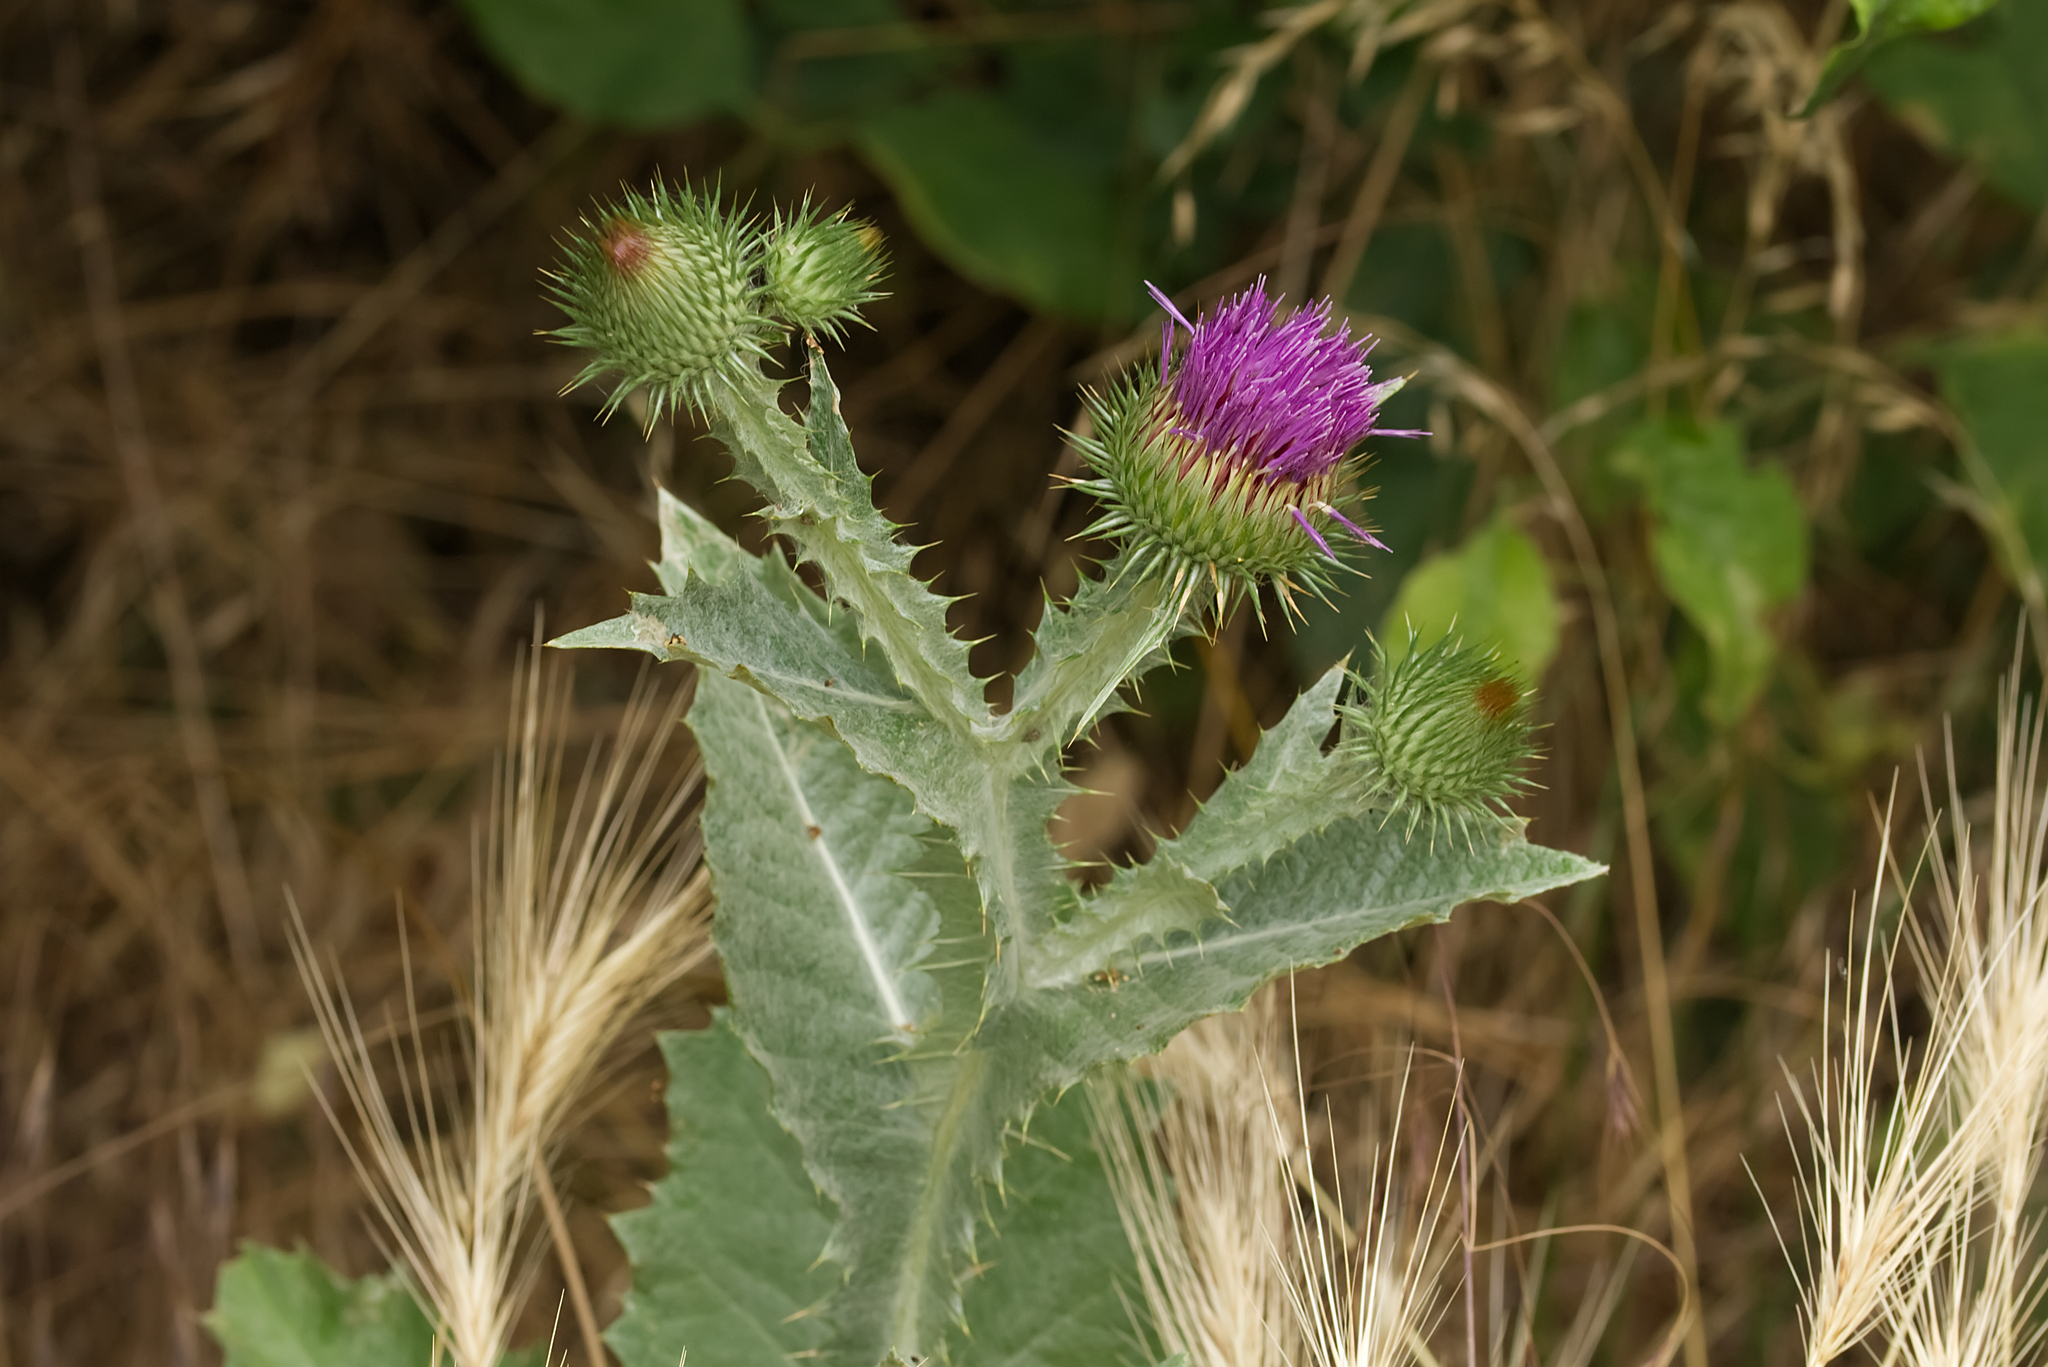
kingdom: Plantae
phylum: Tracheophyta
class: Magnoliopsida
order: Asterales
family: Asteraceae
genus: Onopordum
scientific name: Onopordum acanthium
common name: Scotch thistle
